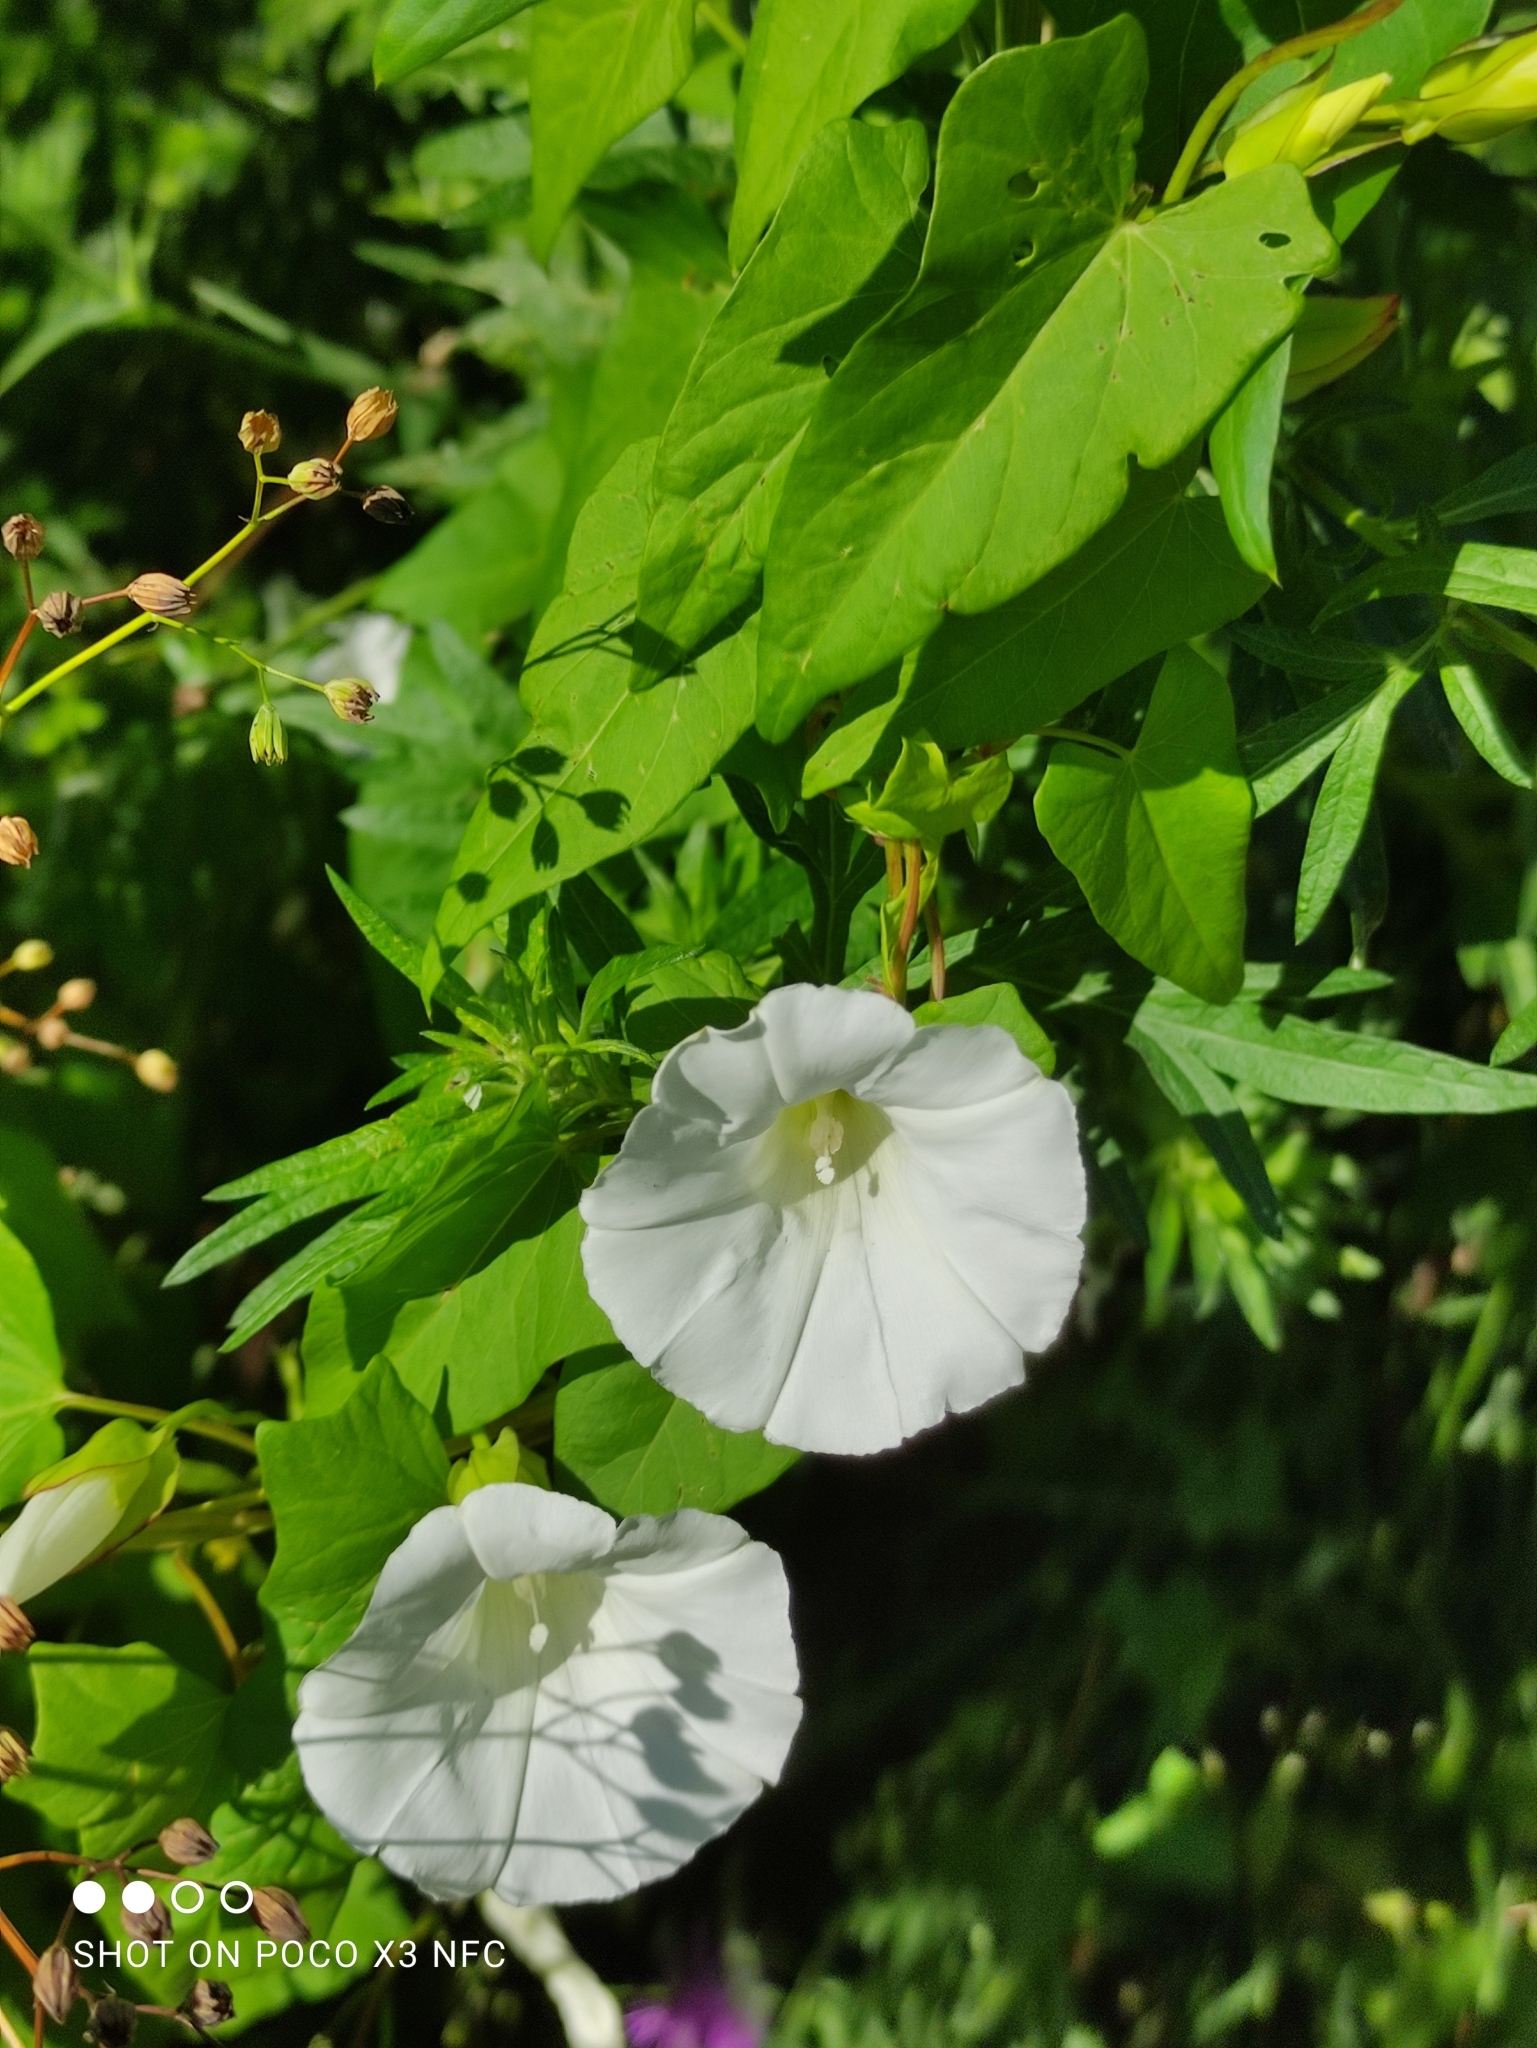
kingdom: Plantae
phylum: Tracheophyta
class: Magnoliopsida
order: Solanales
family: Convolvulaceae
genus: Calystegia
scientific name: Calystegia sepium
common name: Hedge bindweed
